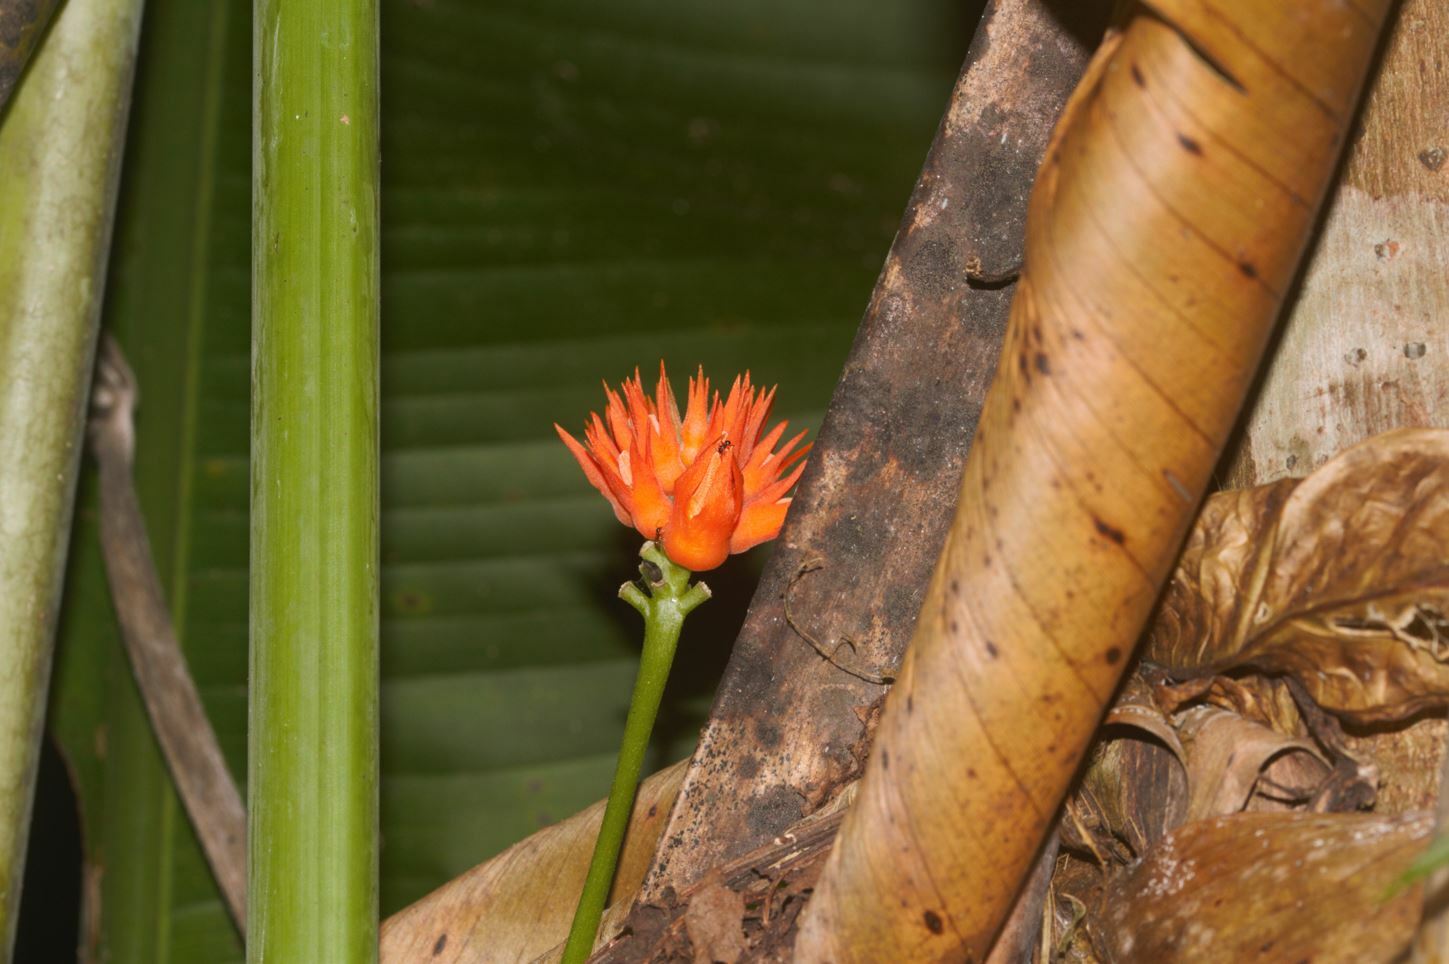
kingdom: Plantae
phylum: Tracheophyta
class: Magnoliopsida
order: Cucurbitales
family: Cucurbitaceae
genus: Gurania
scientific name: Gurania huberi
